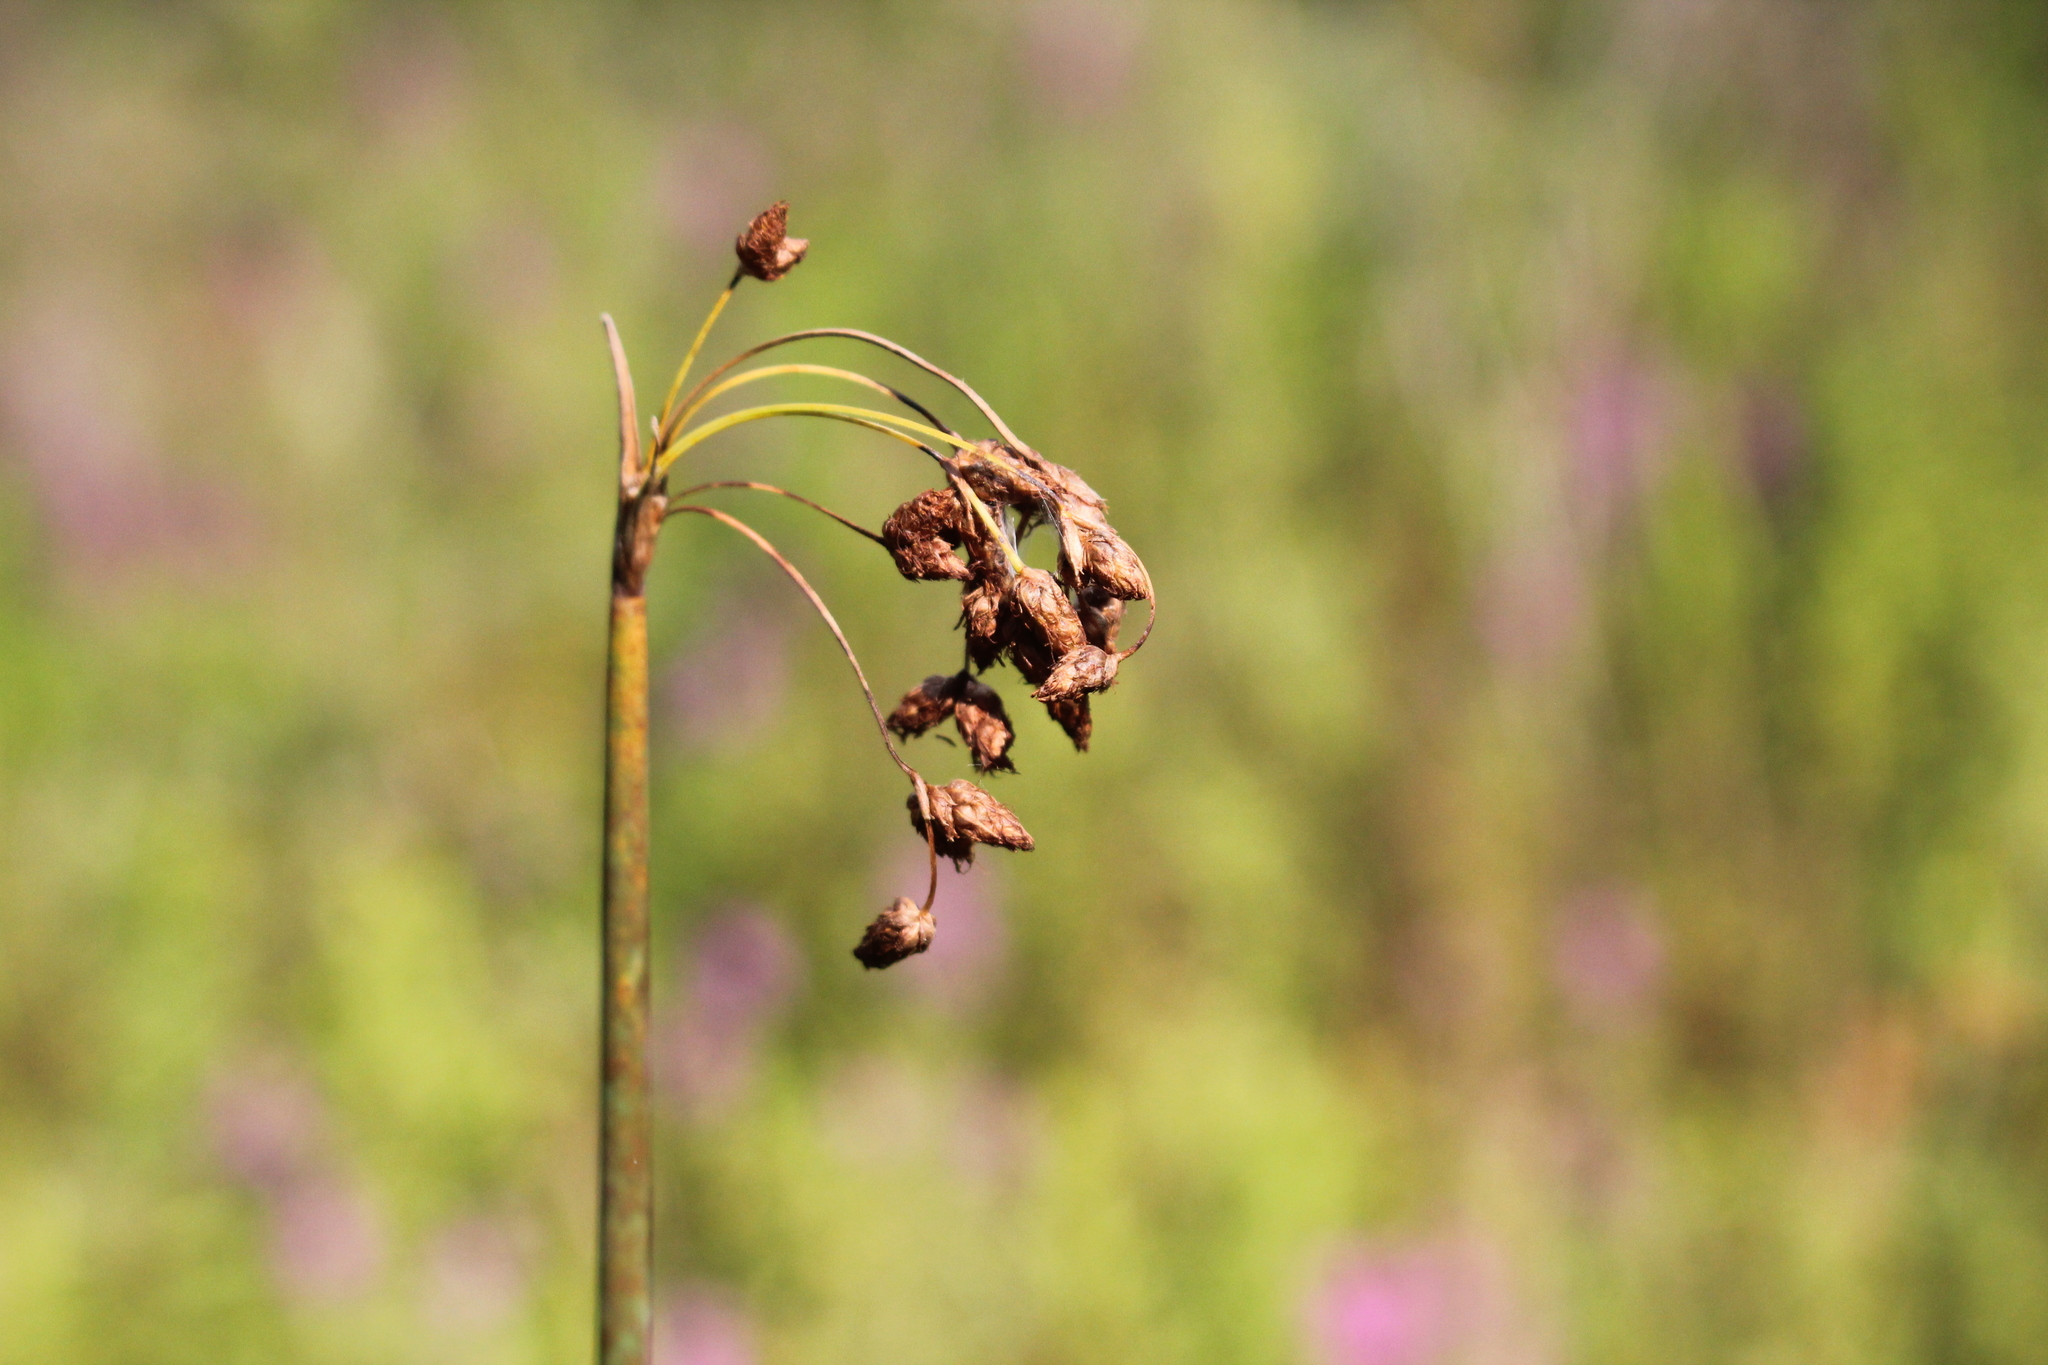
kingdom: Plantae
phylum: Tracheophyta
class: Liliopsida
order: Poales
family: Cyperaceae
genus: Schoenoplectus
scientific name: Schoenoplectus tabernaemontani
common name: Grey club-rush
